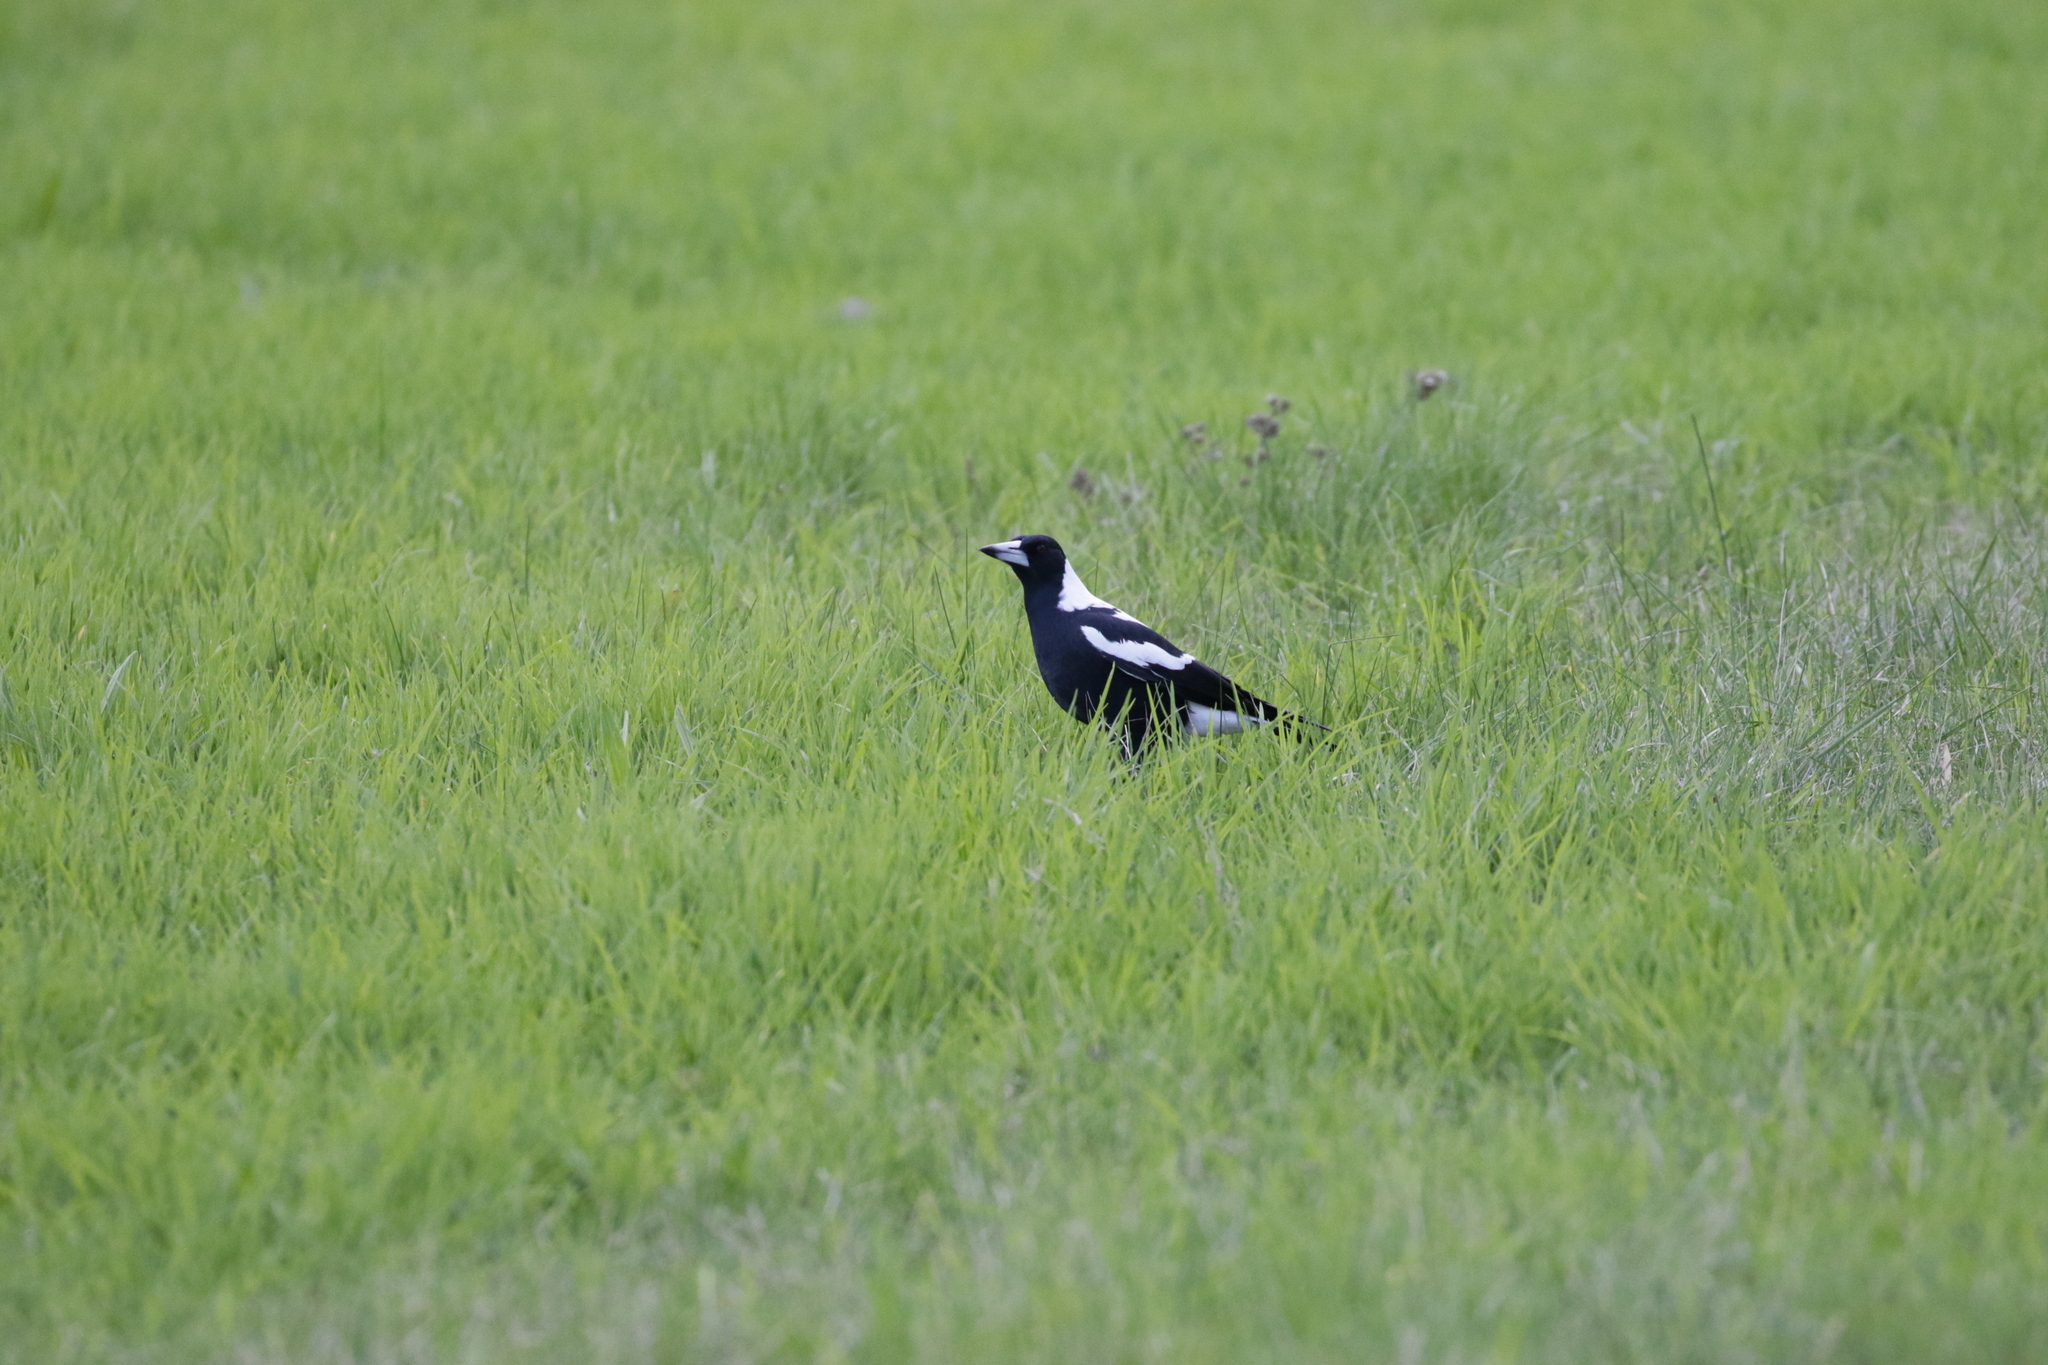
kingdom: Animalia
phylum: Chordata
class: Aves
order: Passeriformes
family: Cracticidae
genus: Gymnorhina
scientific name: Gymnorhina tibicen
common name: Australian magpie
